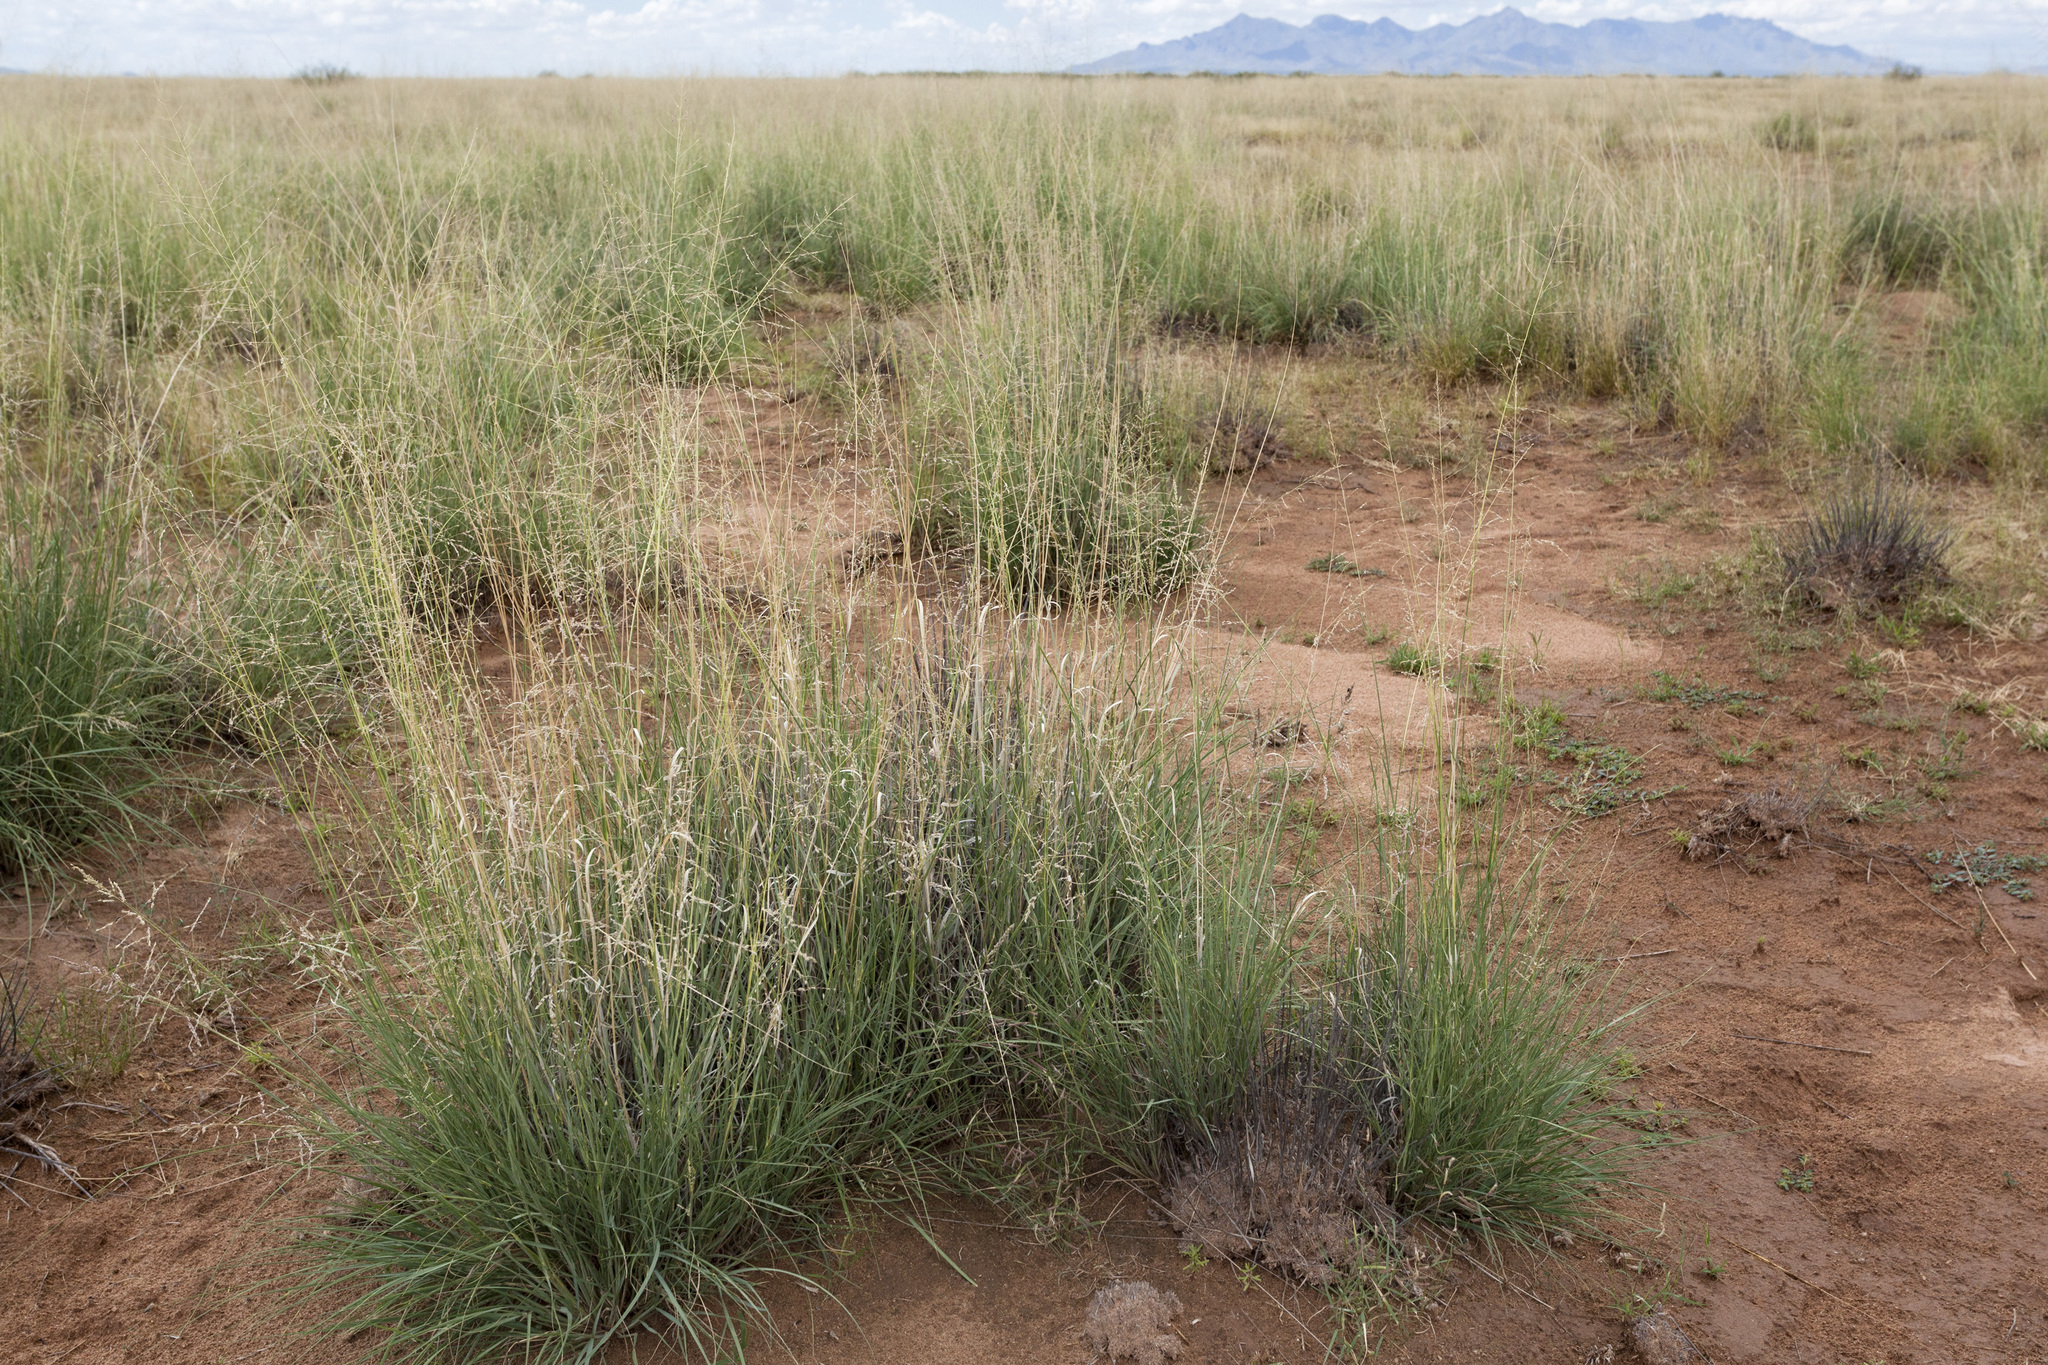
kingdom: Plantae
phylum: Tracheophyta
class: Liliopsida
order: Poales
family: Poaceae
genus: Sporobolus
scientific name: Sporobolus airoides
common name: Alkali sacaton
